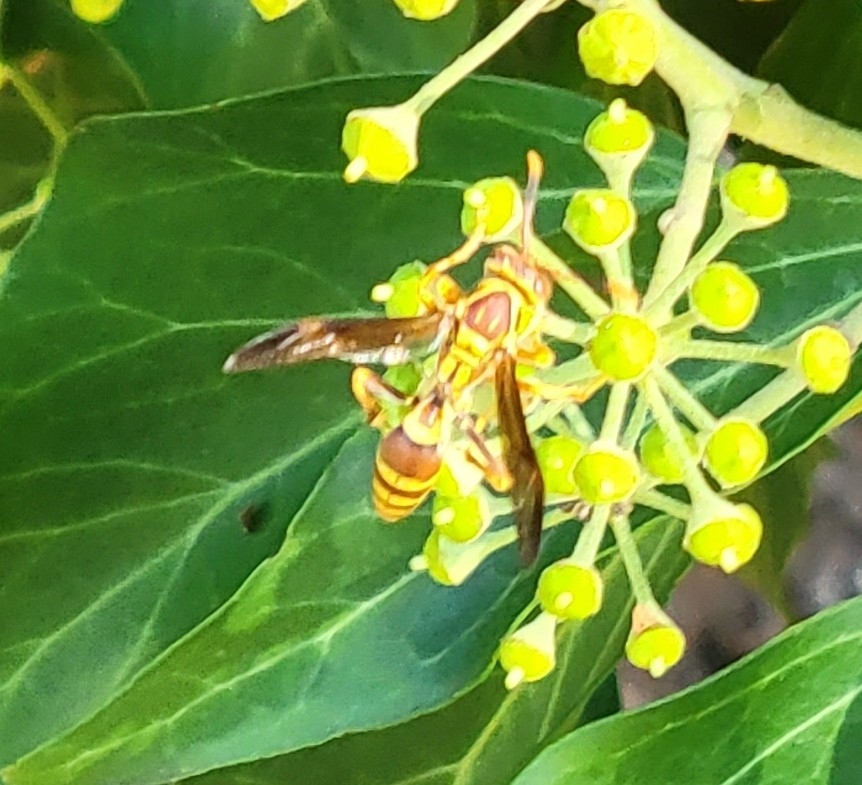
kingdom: Animalia
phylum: Arthropoda
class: Insecta
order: Hymenoptera
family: Eumenidae
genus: Polistes
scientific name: Polistes exclamans
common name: Paper wasp
